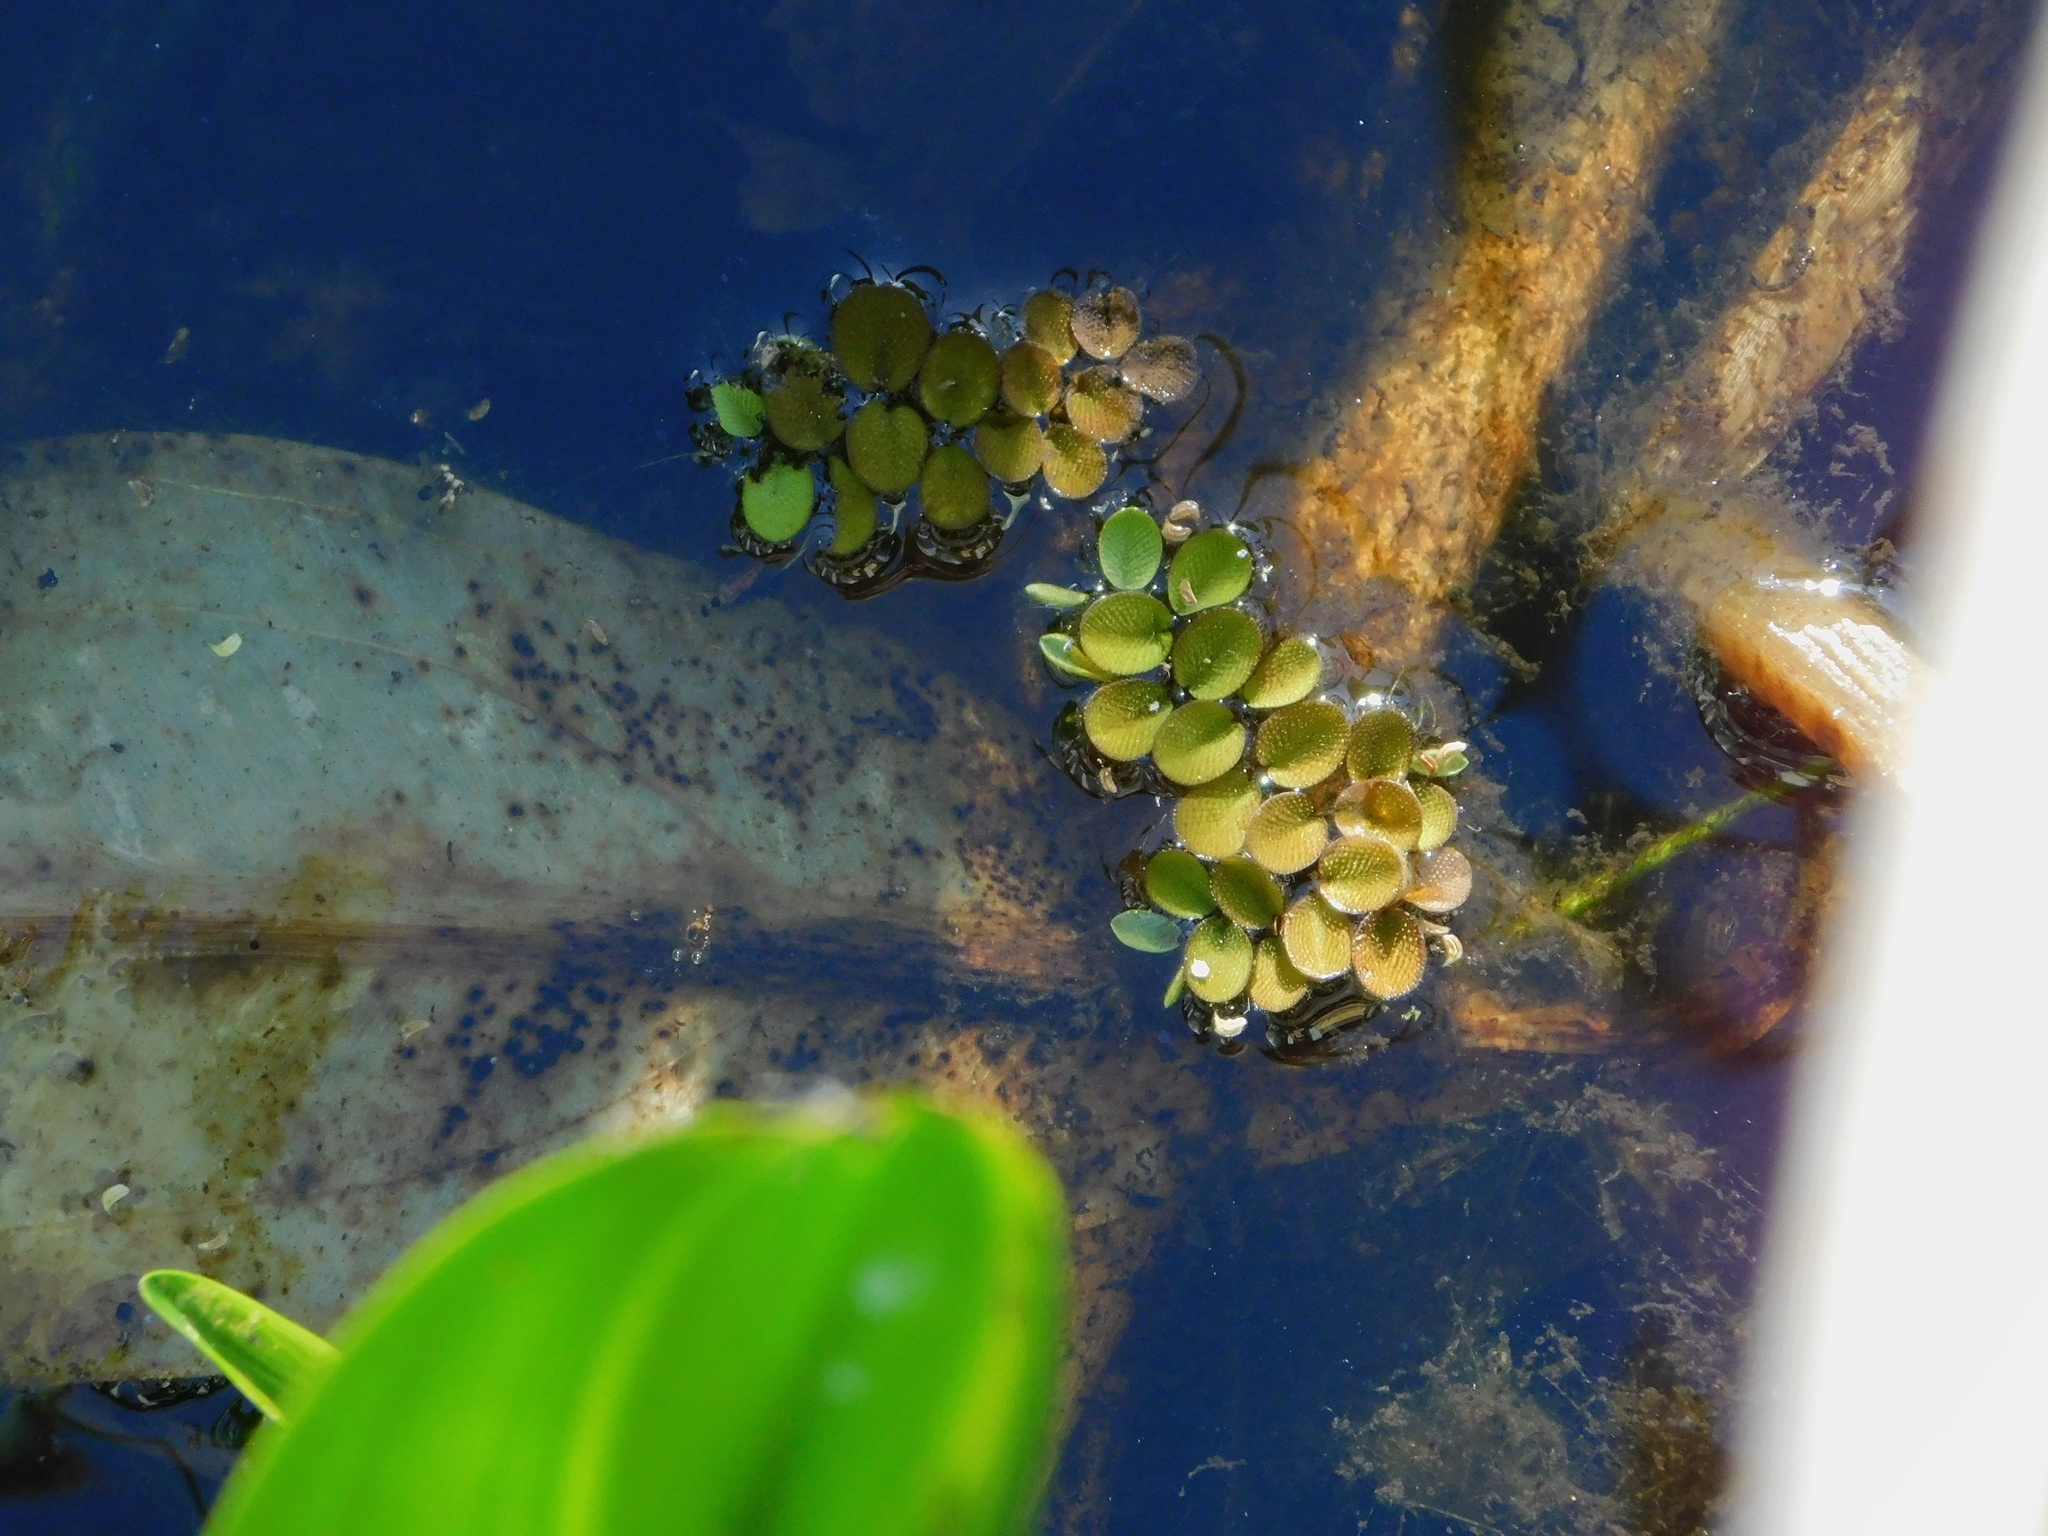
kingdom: Plantae
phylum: Tracheophyta
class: Polypodiopsida
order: Salviniales
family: Salviniaceae
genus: Salvinia
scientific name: Salvinia minima
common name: Water spangles
